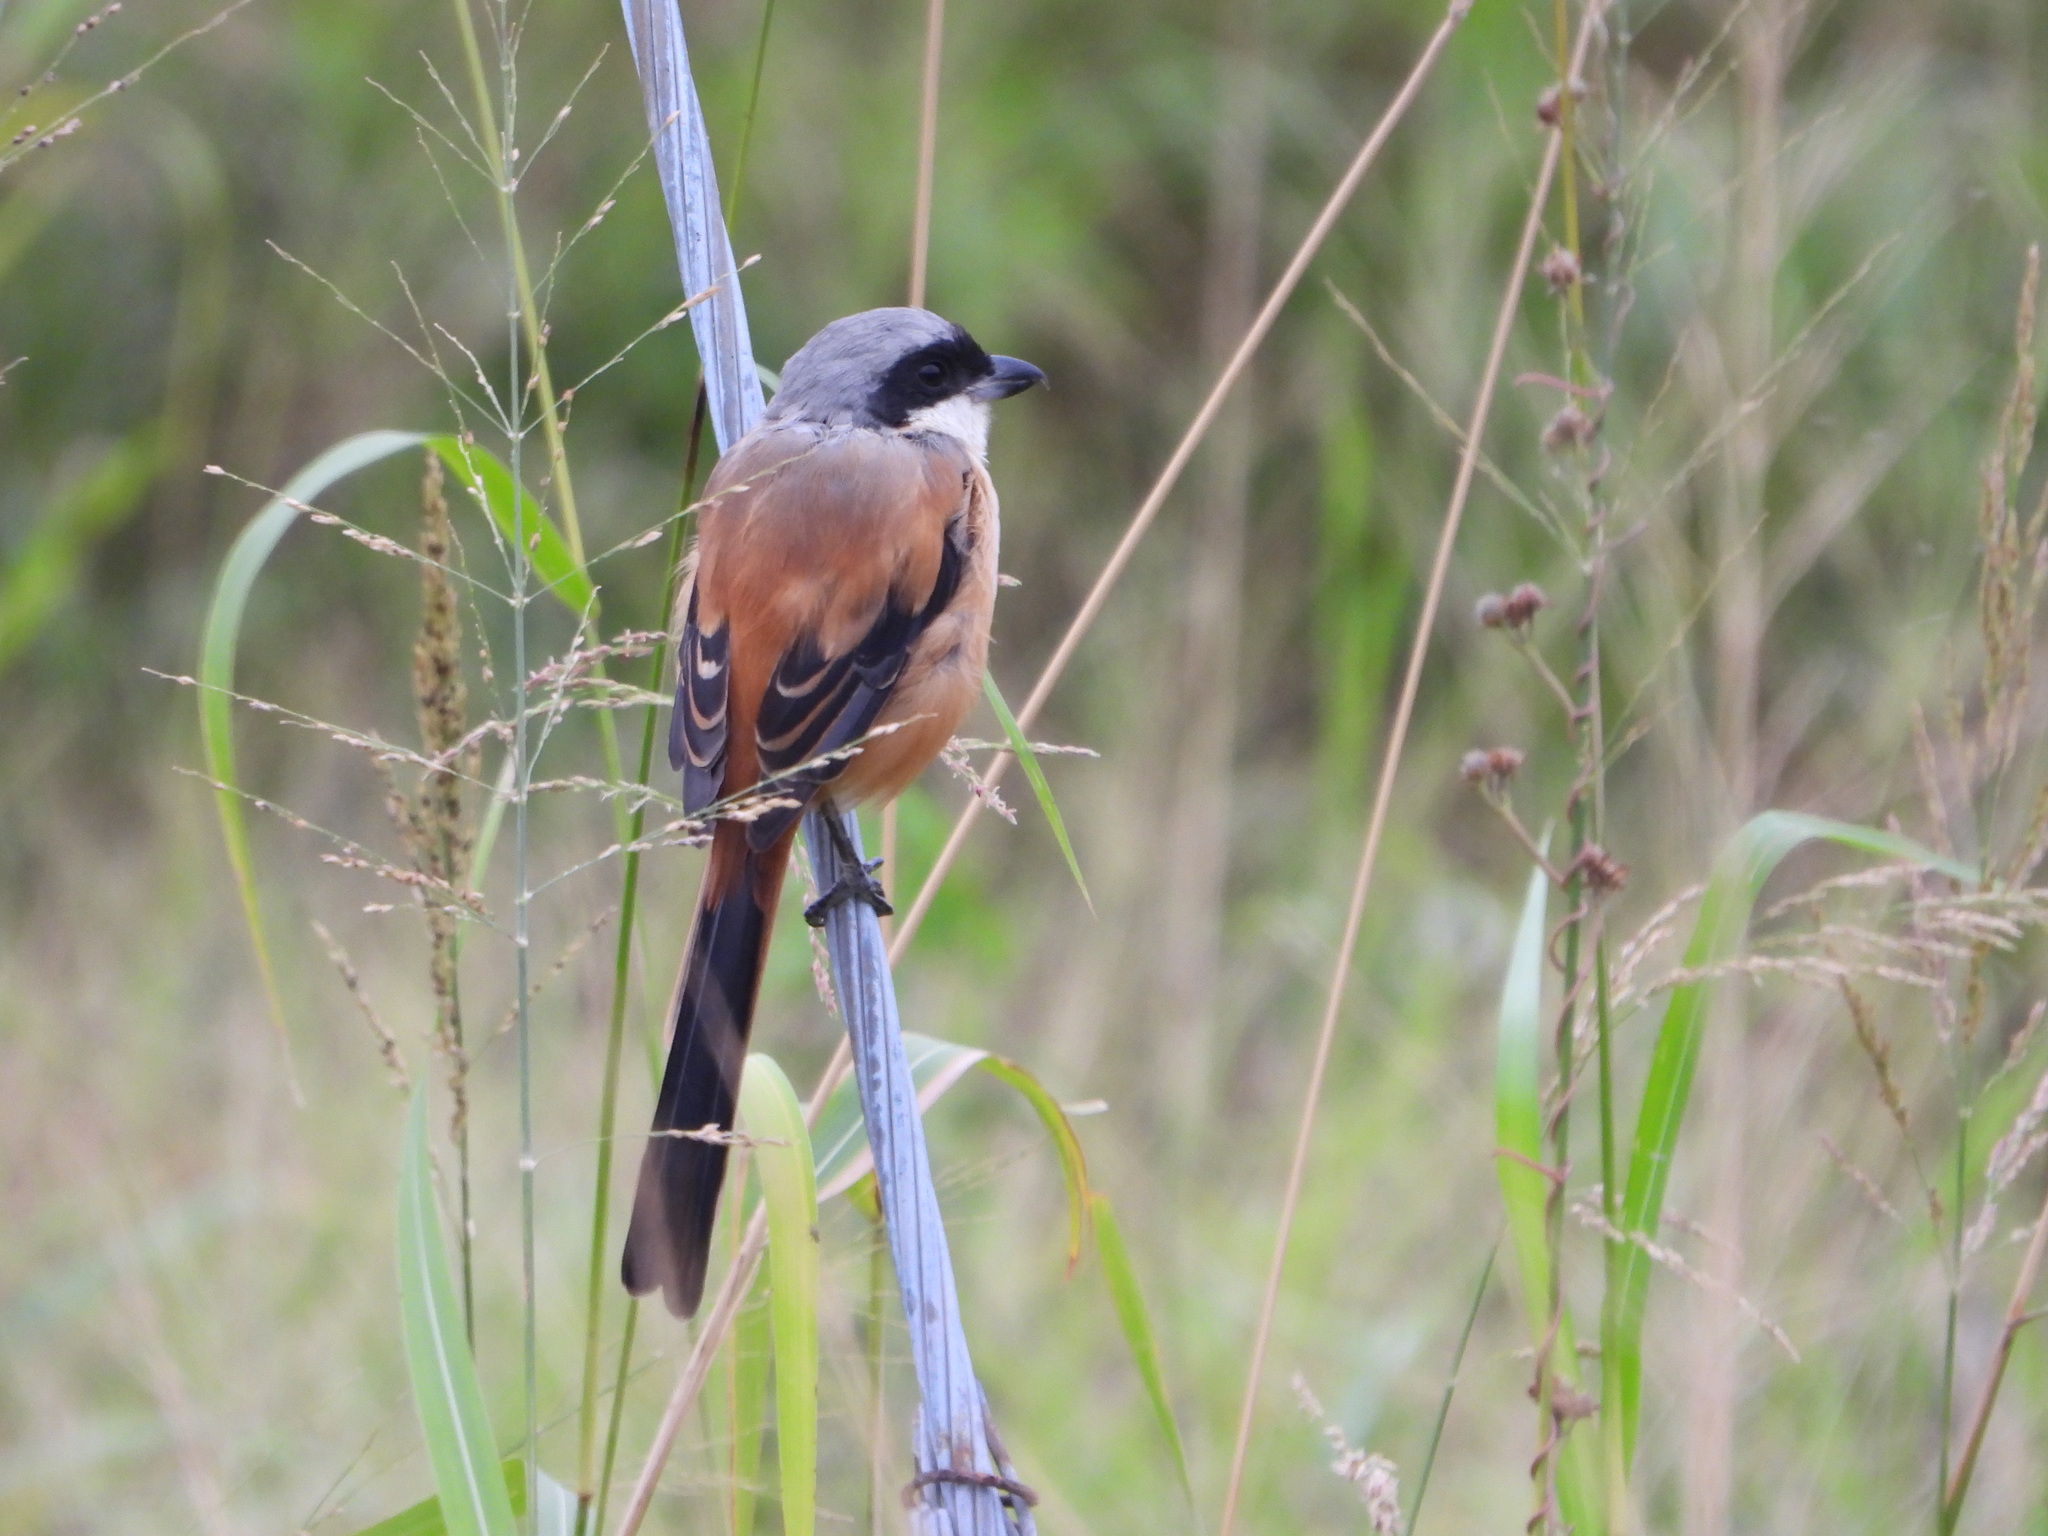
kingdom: Animalia
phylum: Chordata
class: Aves
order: Passeriformes
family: Laniidae
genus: Lanius
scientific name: Lanius schach
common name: Long-tailed shrike
